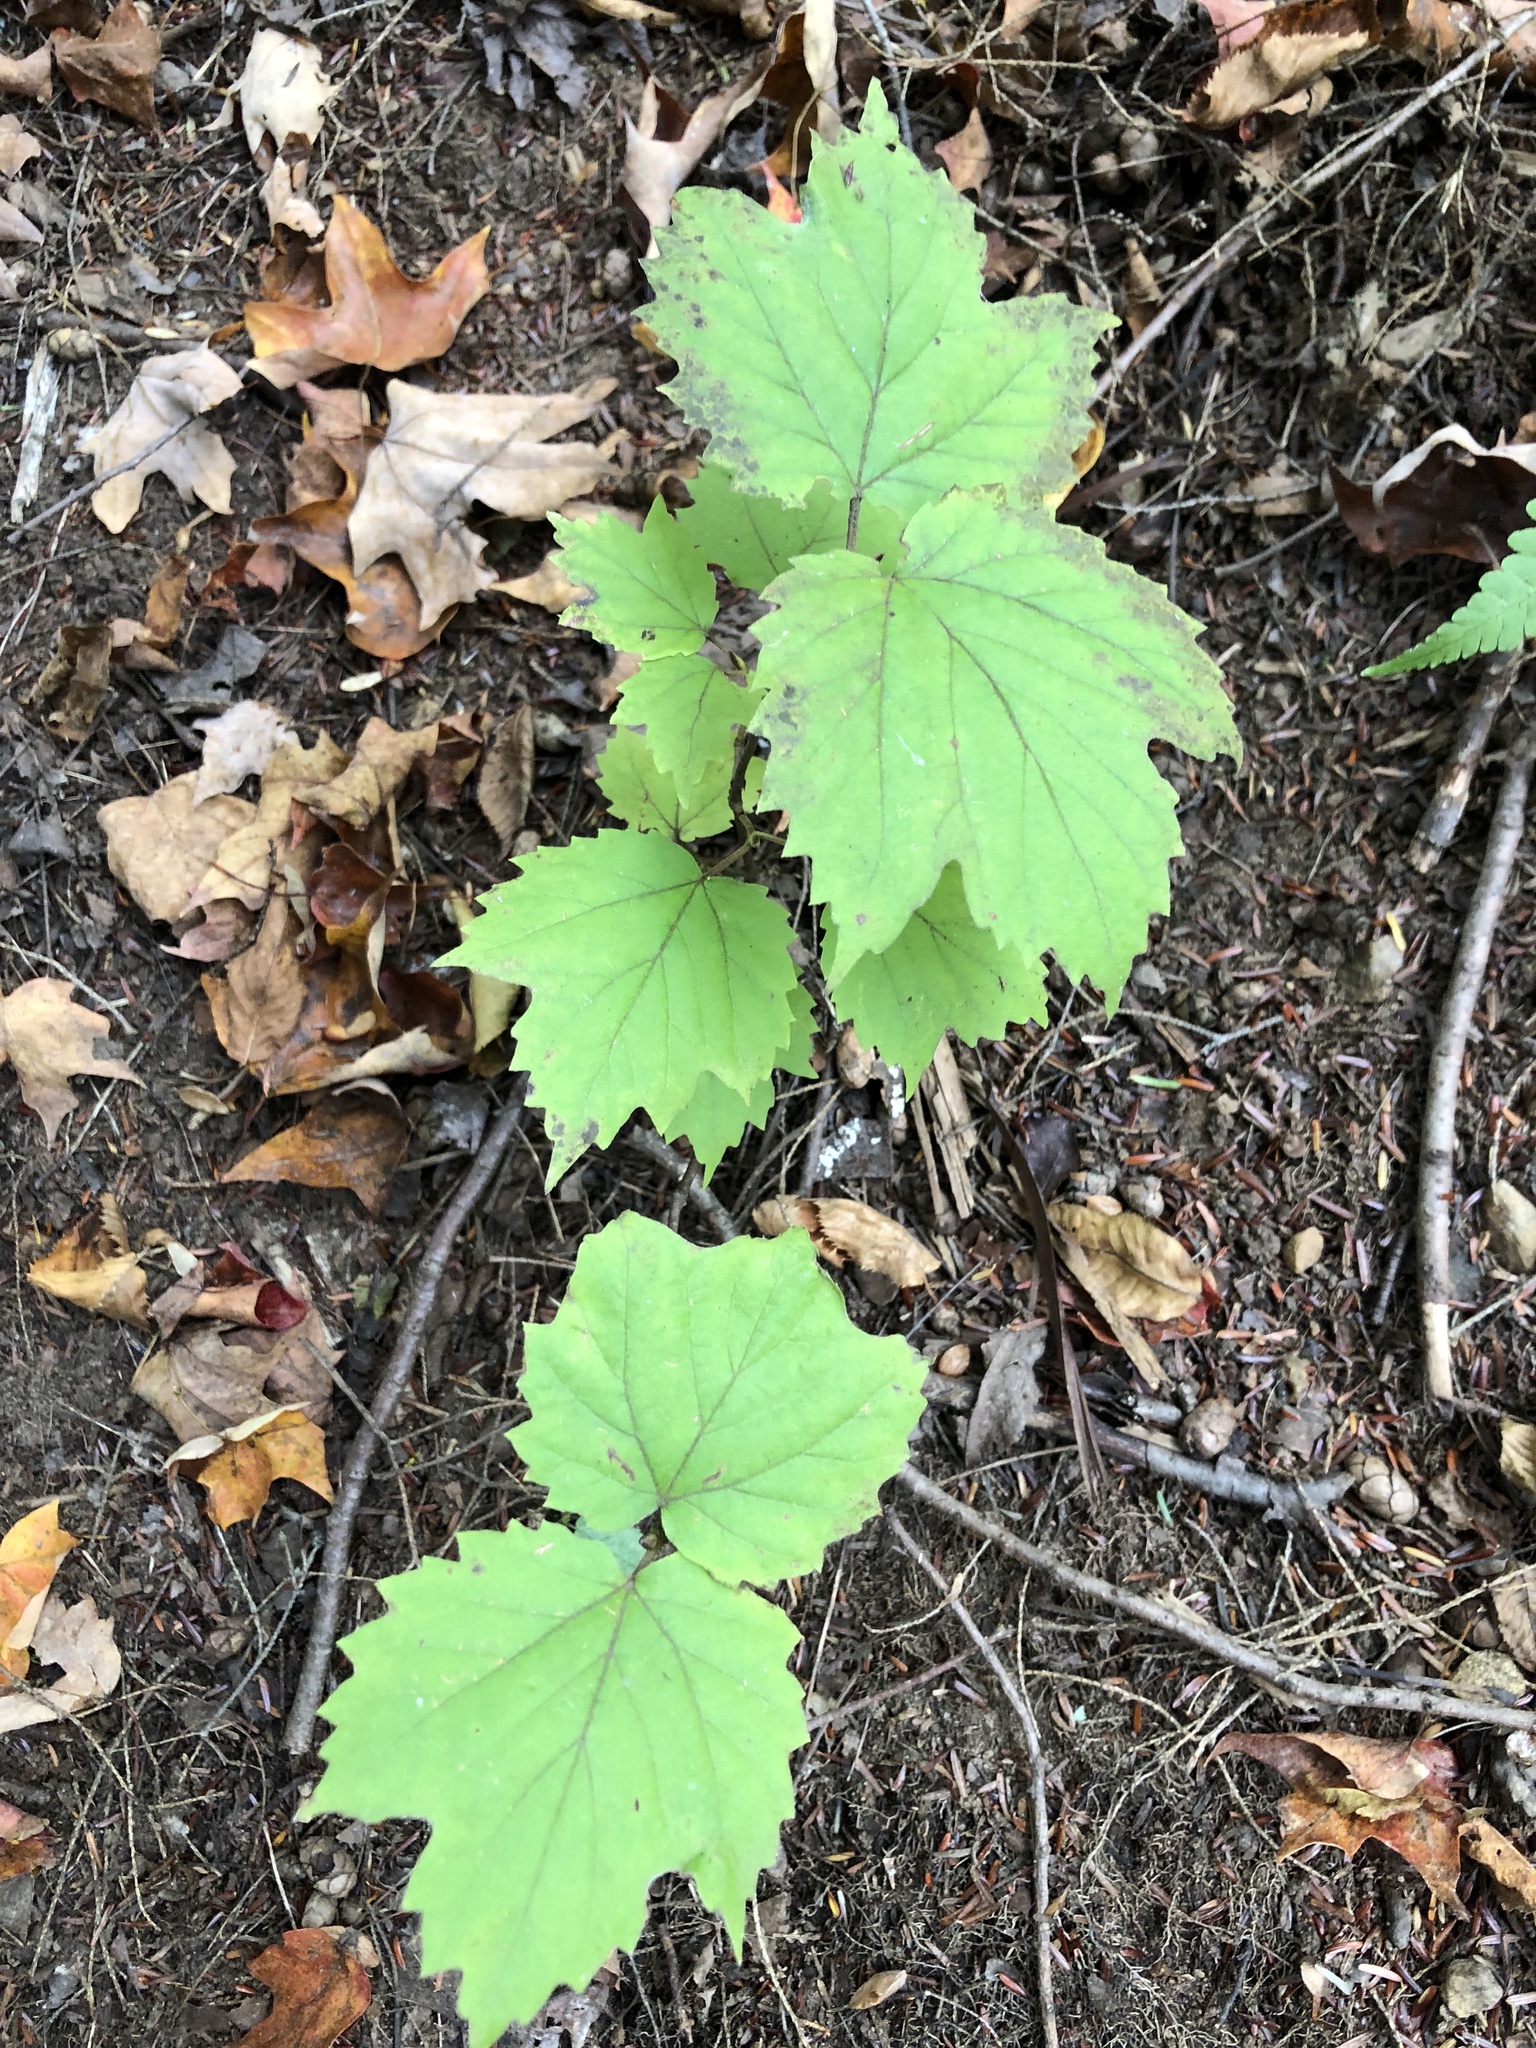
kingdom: Plantae
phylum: Tracheophyta
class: Magnoliopsida
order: Dipsacales
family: Viburnaceae
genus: Viburnum
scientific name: Viburnum acerifolium
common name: Dockmackie
